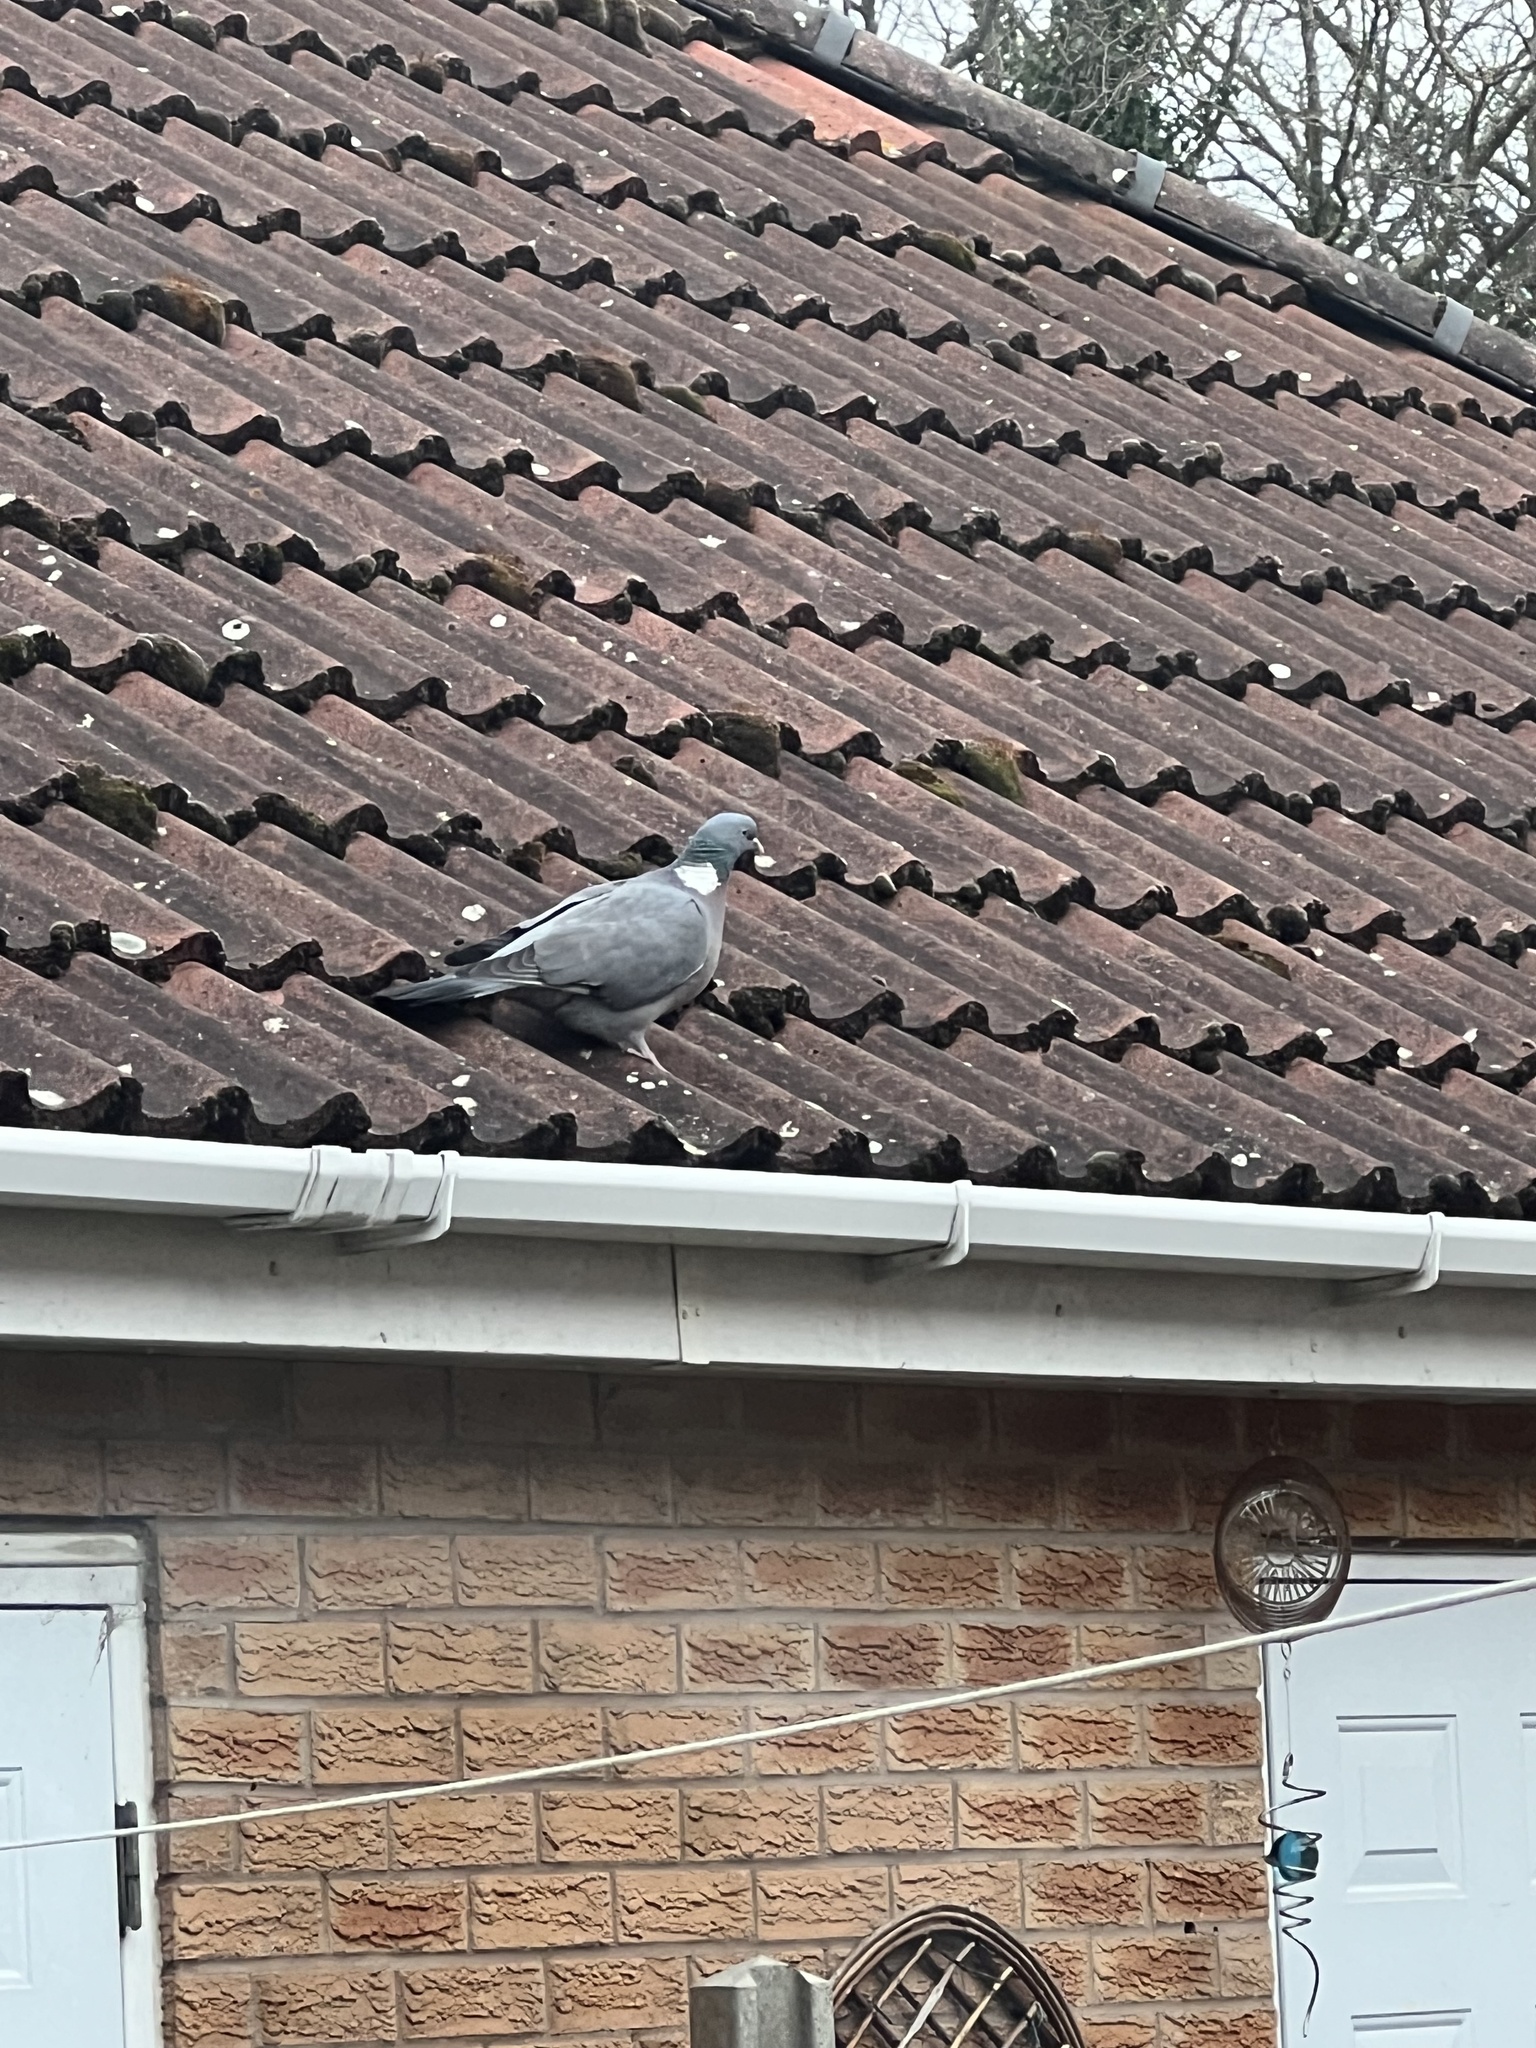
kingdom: Animalia
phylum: Chordata
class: Aves
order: Columbiformes
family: Columbidae
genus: Columba
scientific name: Columba palumbus
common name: Common wood pigeon
